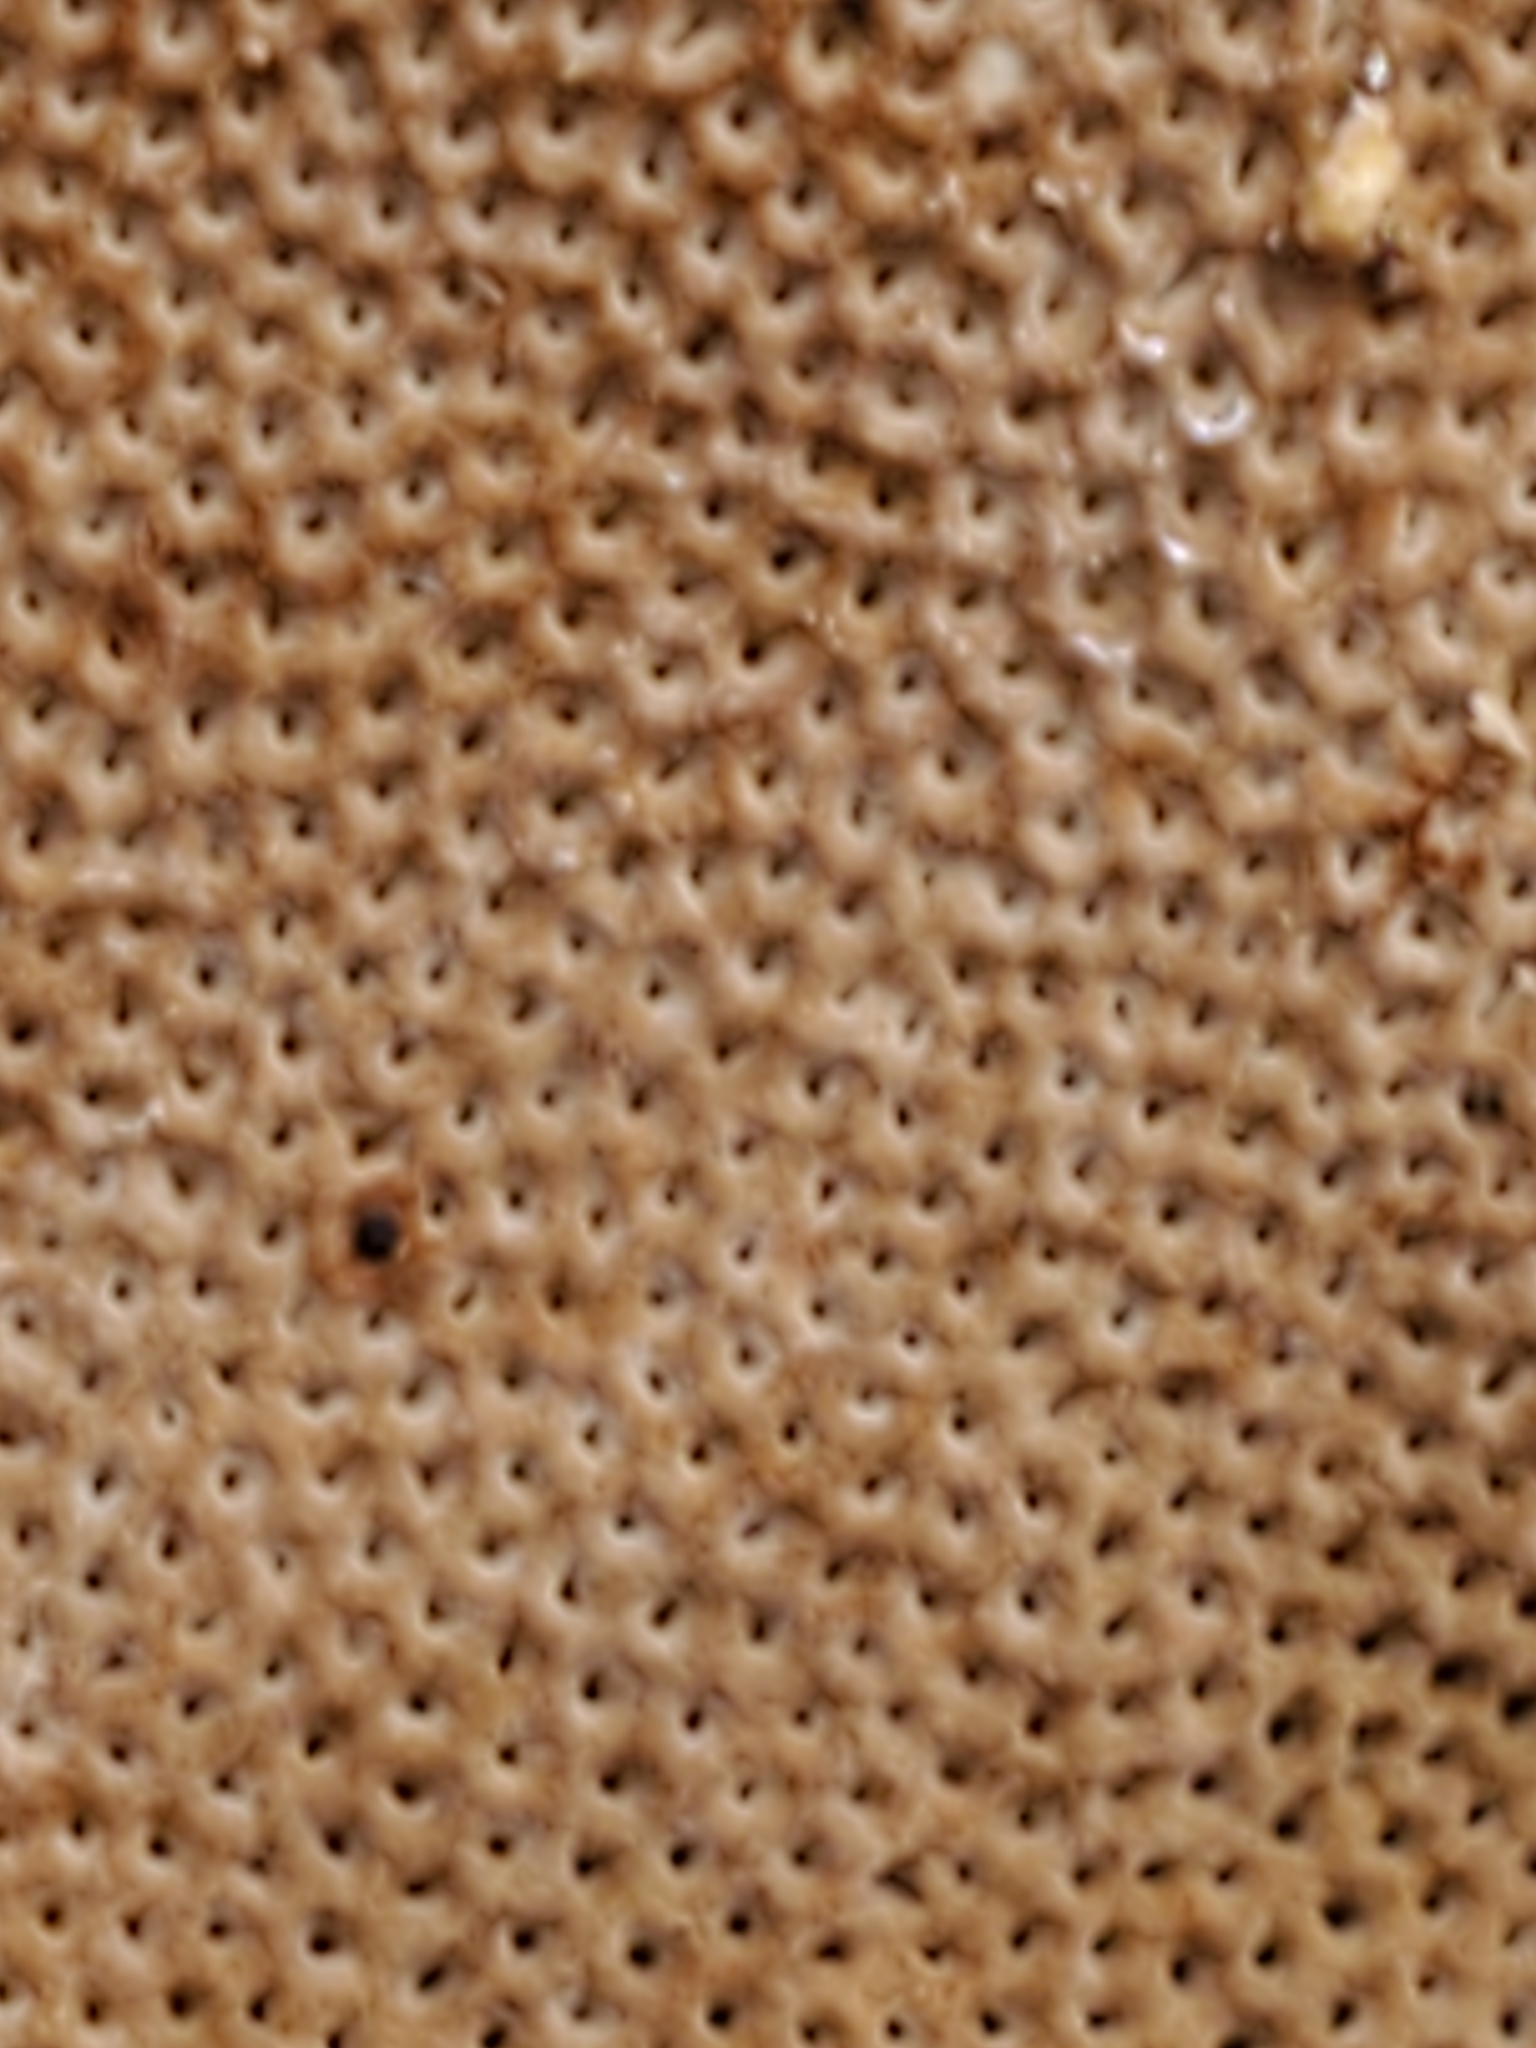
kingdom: Fungi
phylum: Basidiomycota
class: Agaricomycetes
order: Polyporales
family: Polyporaceae
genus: Fomes
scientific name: Fomes fomentarius
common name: Hoof fungus
